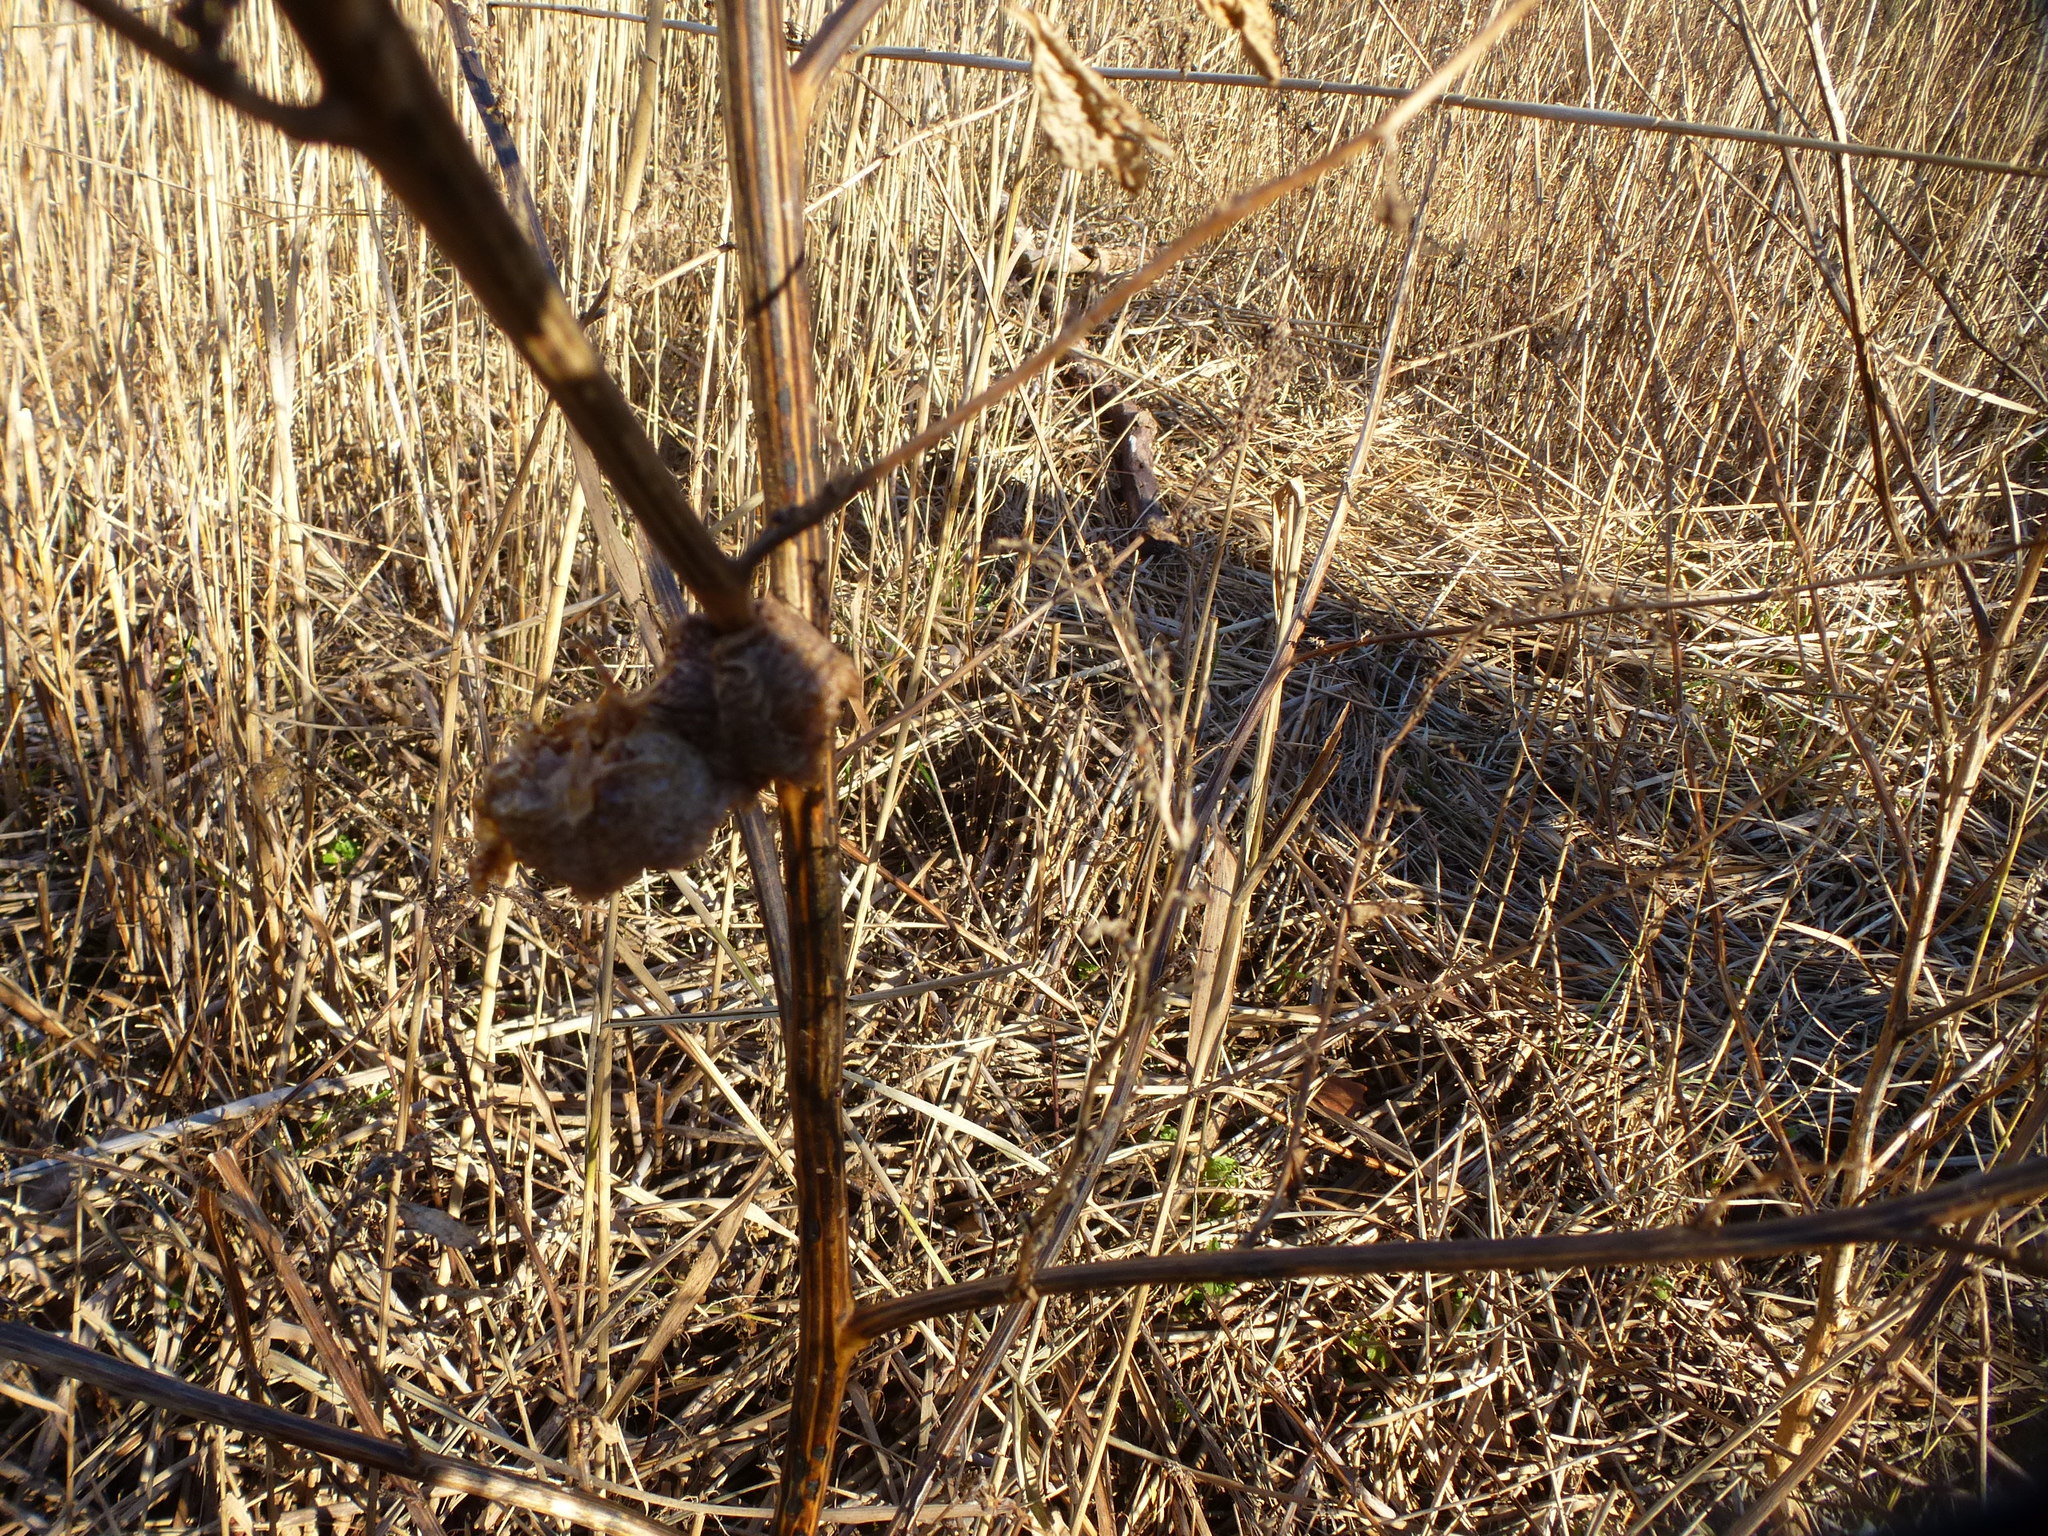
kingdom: Animalia
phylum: Arthropoda
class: Insecta
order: Mantodea
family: Mantidae
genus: Tenodera
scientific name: Tenodera sinensis
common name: Chinese mantis
